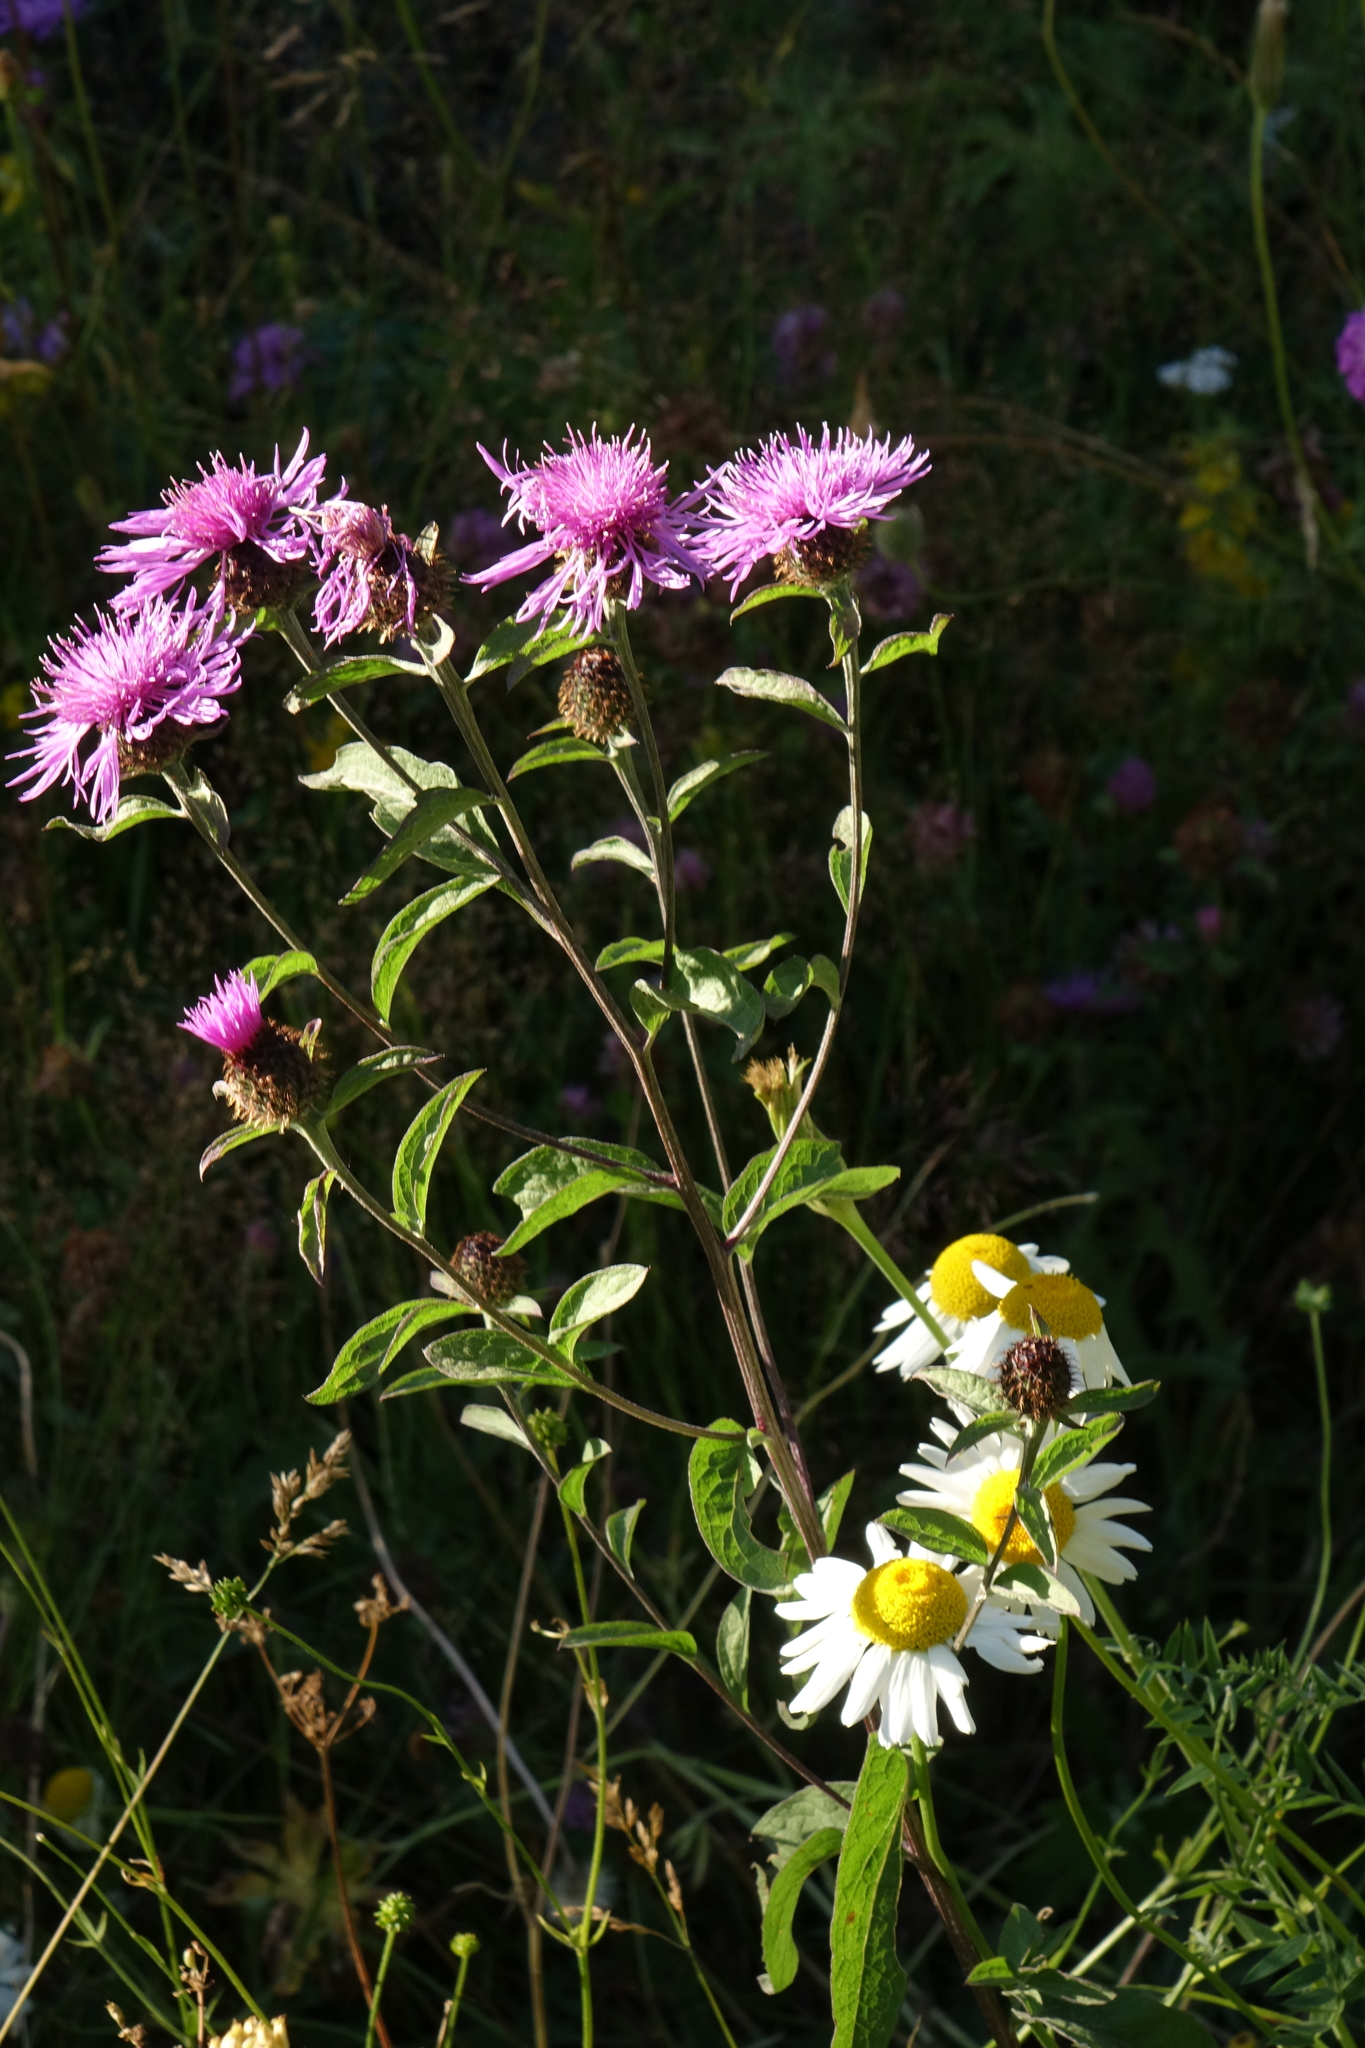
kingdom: Plantae
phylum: Tracheophyta
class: Magnoliopsida
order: Asterales
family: Asteraceae
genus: Centaurea
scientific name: Centaurea phrygia
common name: Wig knapweed
